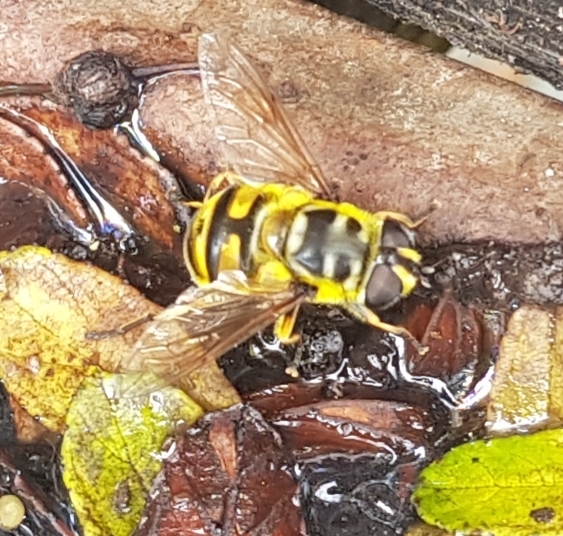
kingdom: Animalia
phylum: Arthropoda
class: Insecta
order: Diptera
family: Syrphidae
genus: Myathropa
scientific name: Myathropa florea
